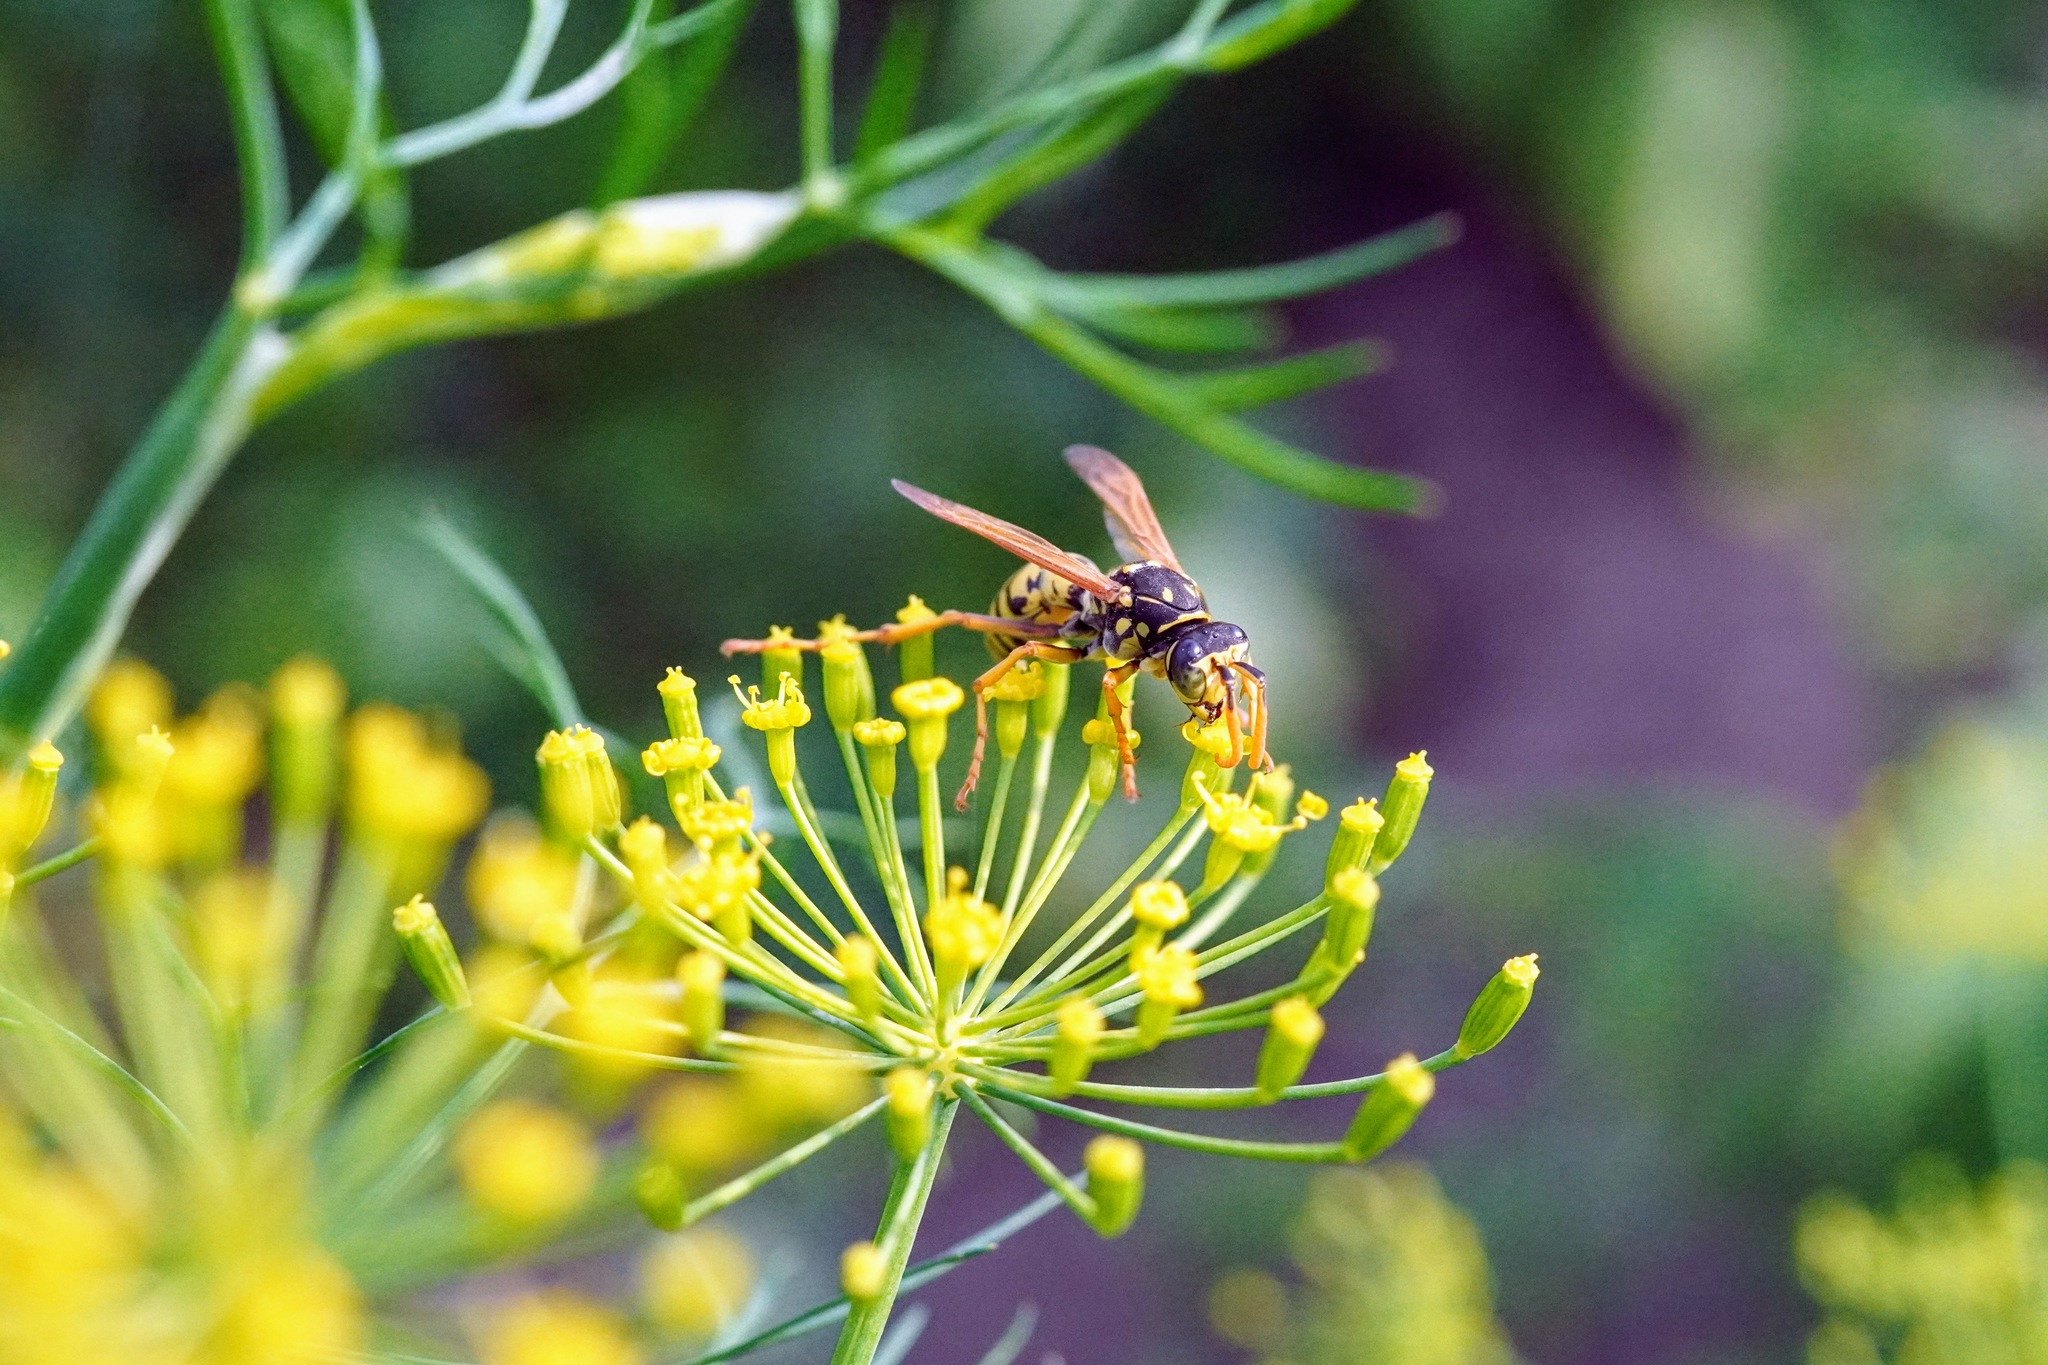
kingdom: Animalia
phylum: Arthropoda
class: Insecta
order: Hymenoptera
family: Eumenidae
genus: Polistes
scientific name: Polistes dominula
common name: Paper wasp
